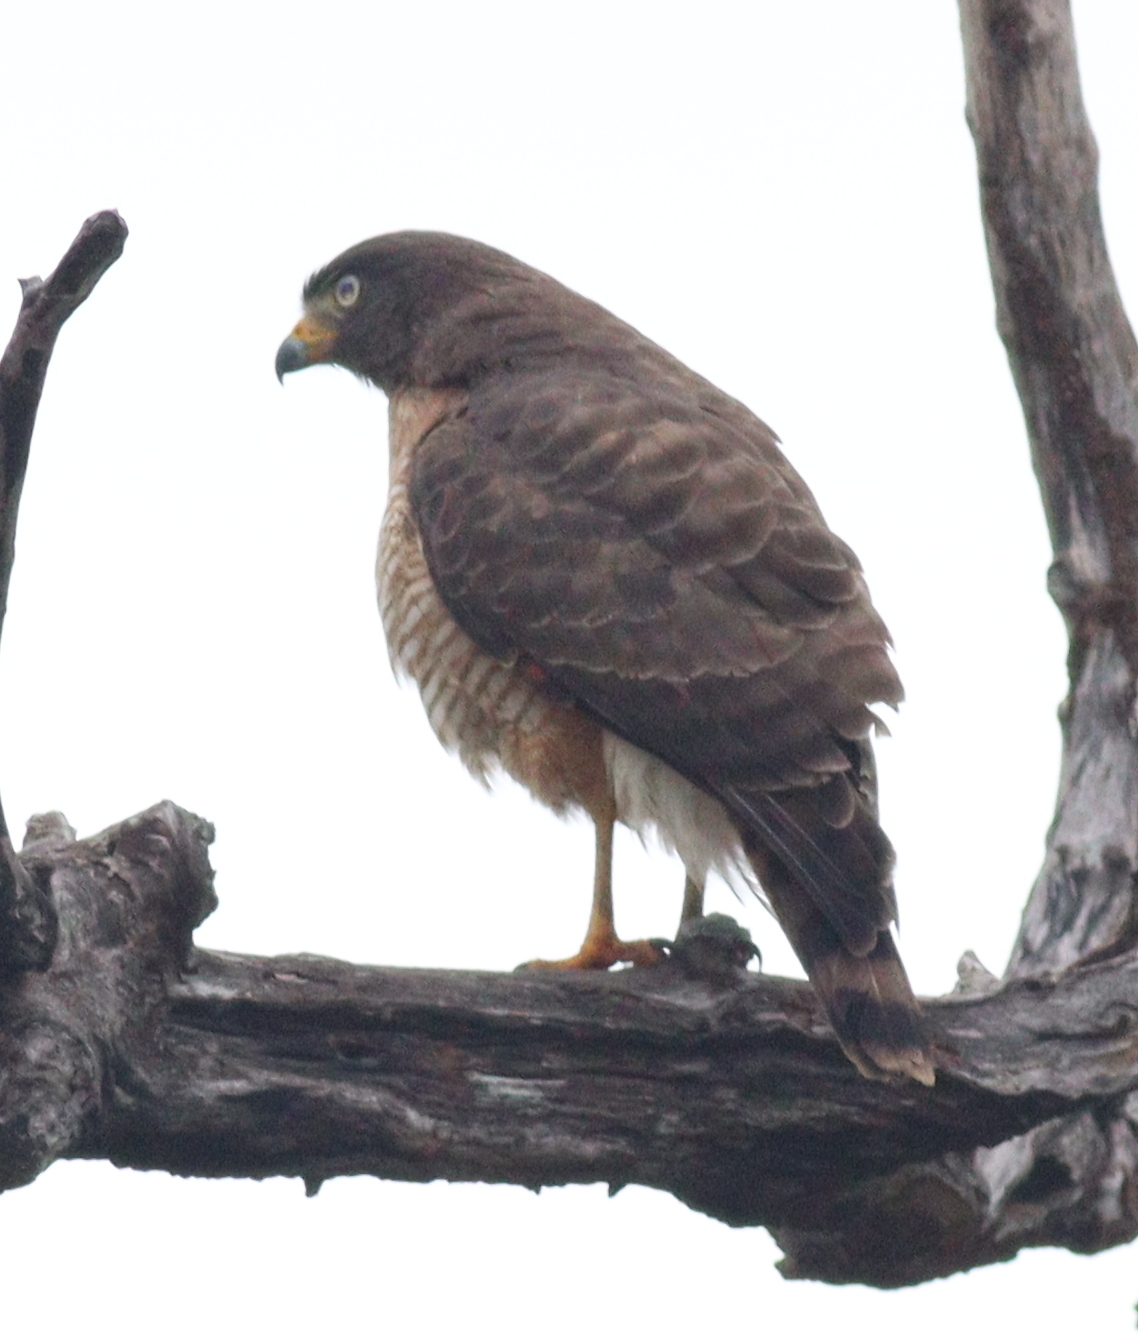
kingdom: Animalia
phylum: Chordata
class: Aves
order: Accipitriformes
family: Accipitridae
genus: Rupornis
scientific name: Rupornis magnirostris
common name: Roadside hawk
